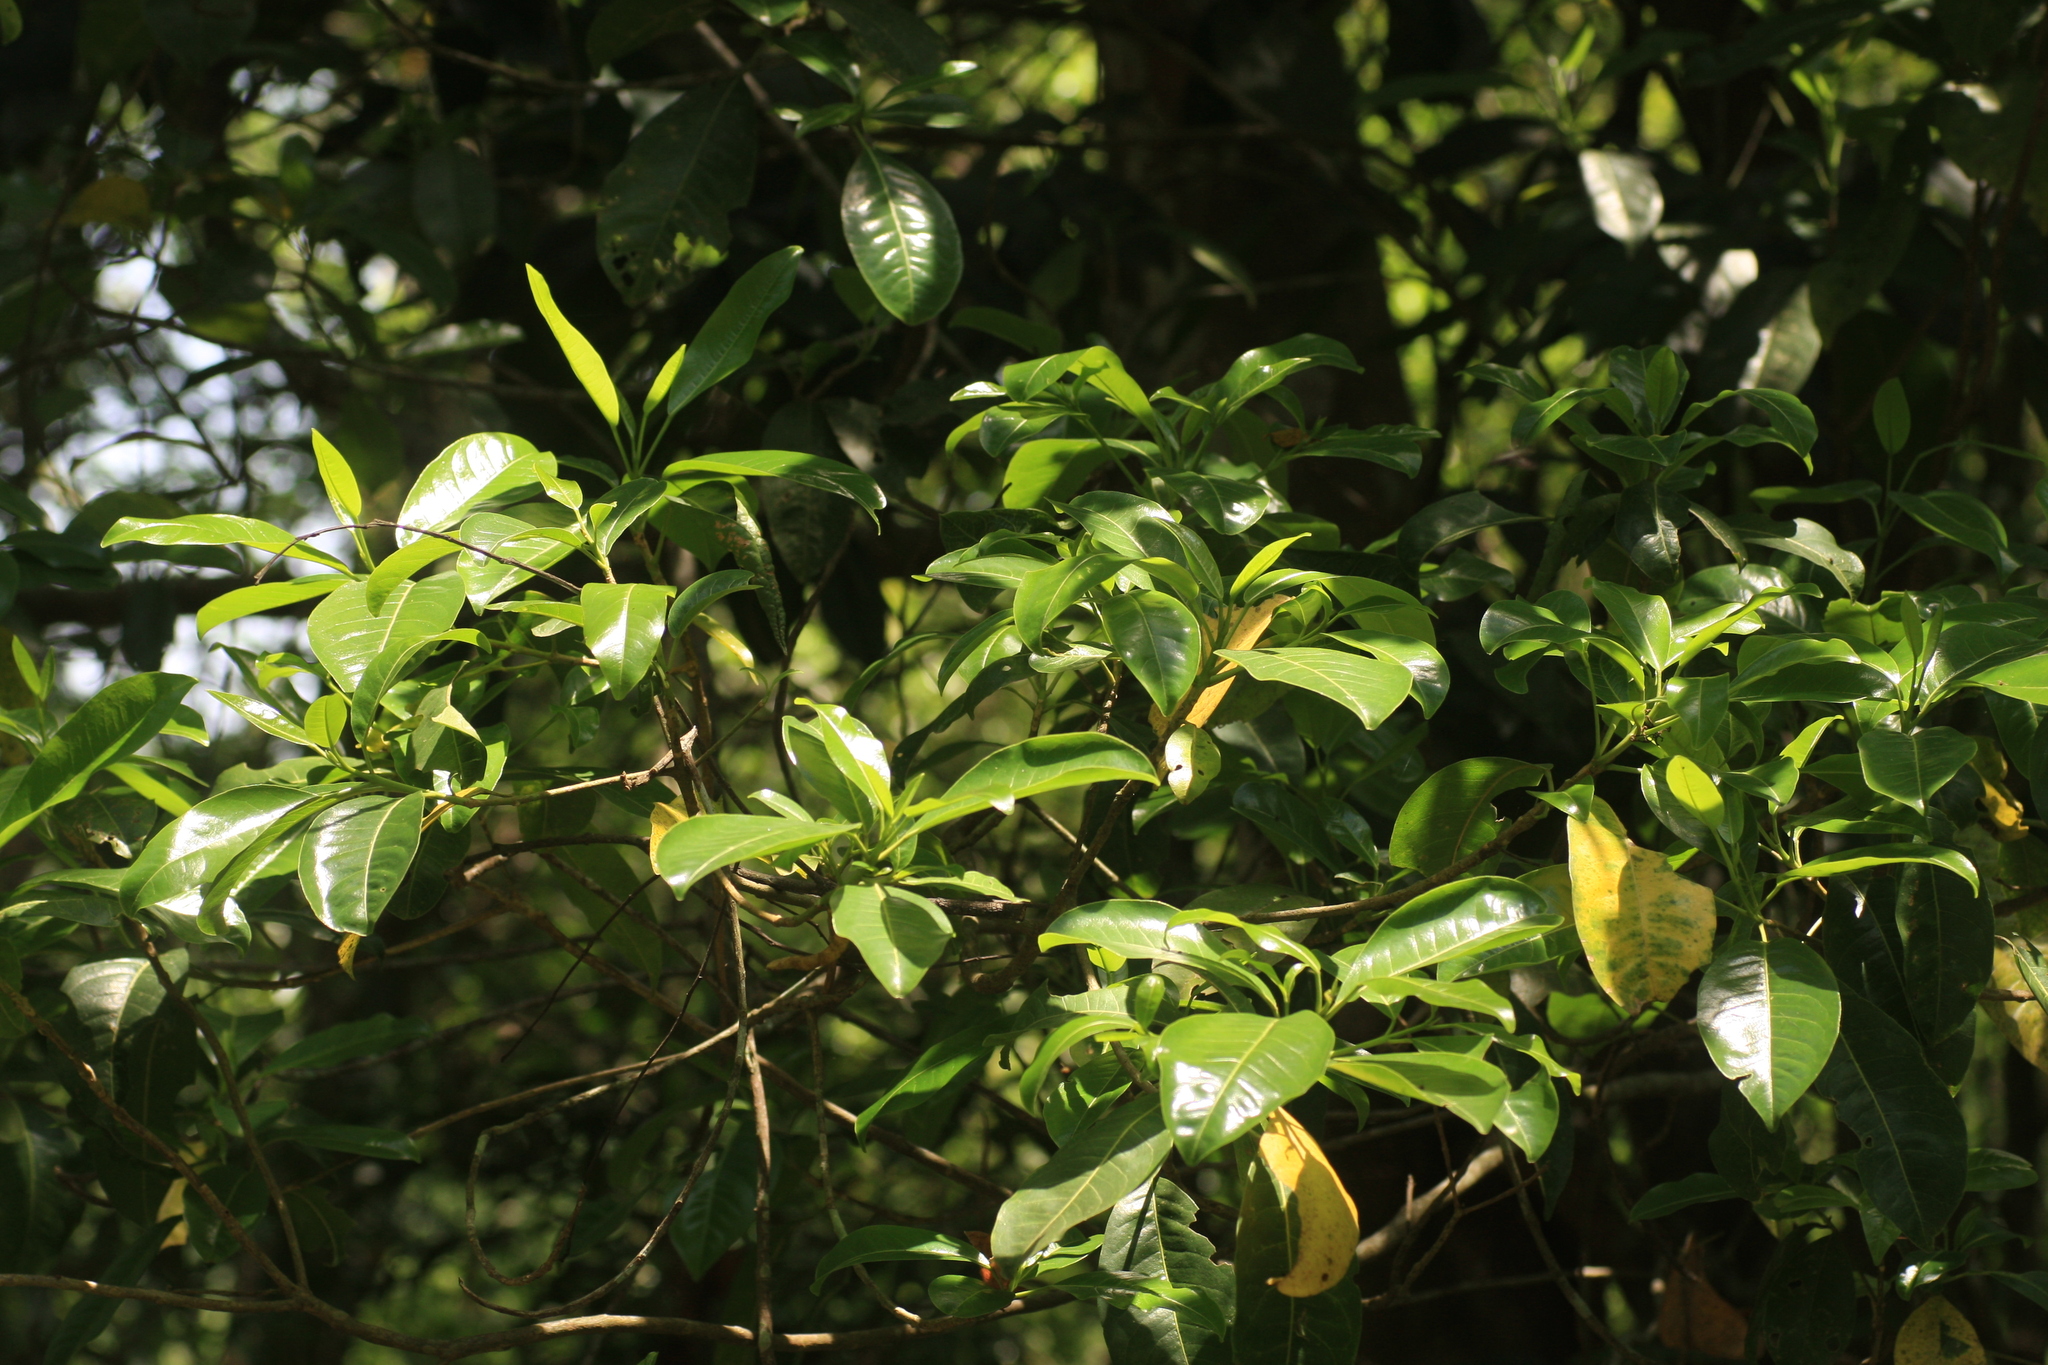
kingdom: Plantae
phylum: Tracheophyta
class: Magnoliopsida
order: Sapindales
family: Rutaceae
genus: Acronychia
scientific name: Acronychia pedunculata
